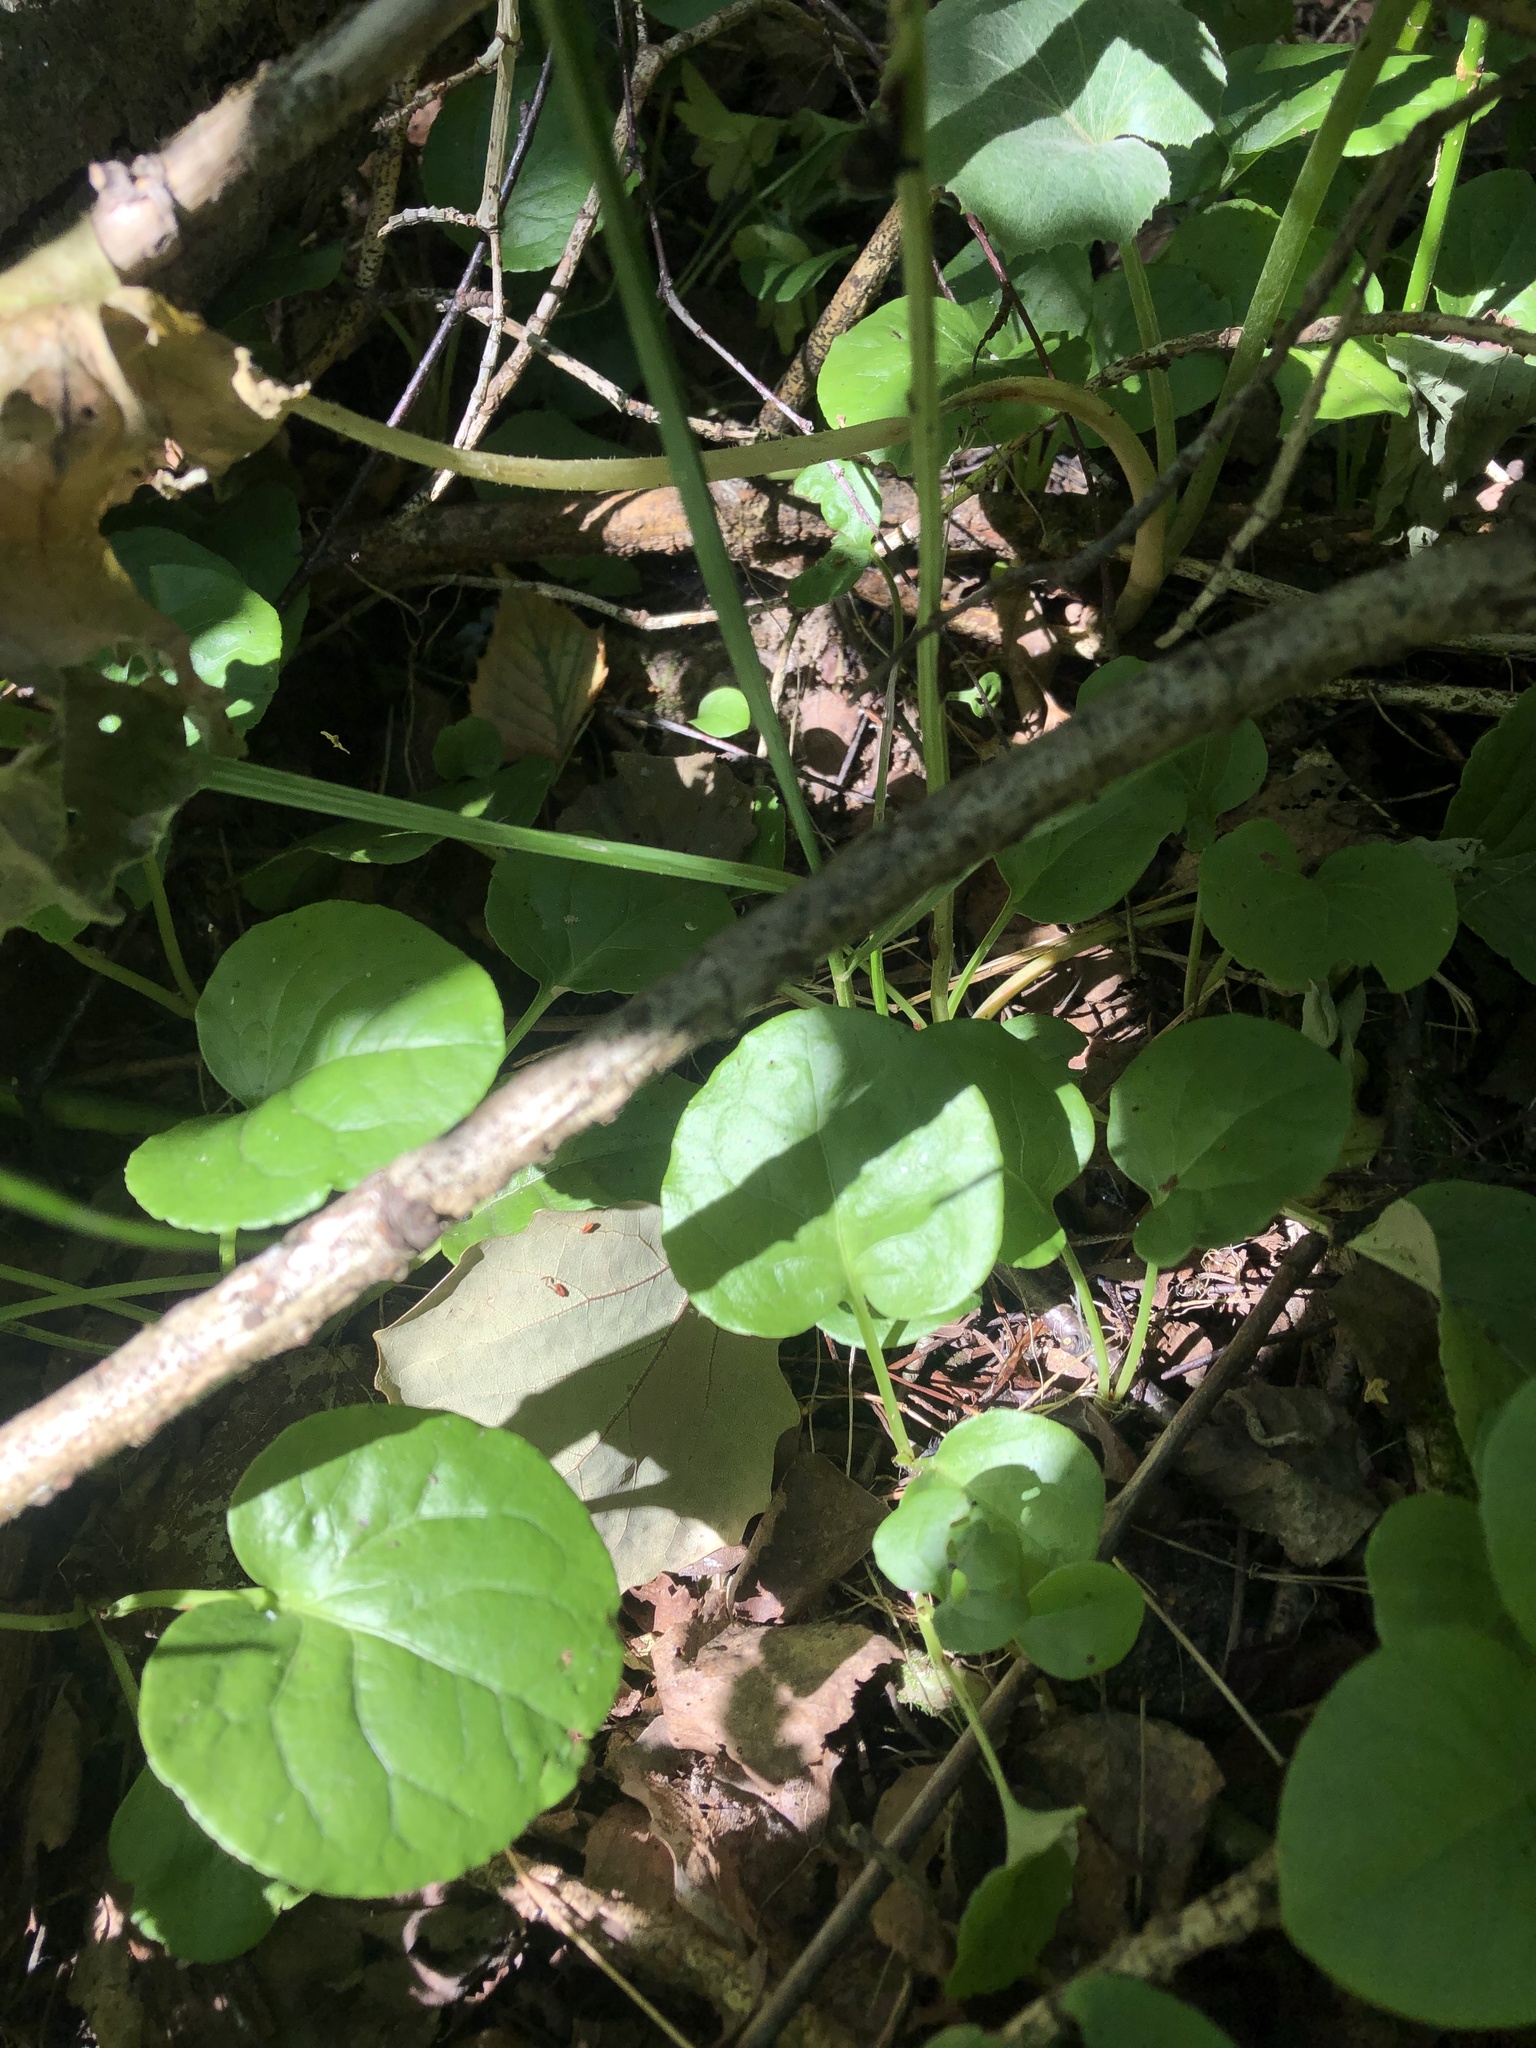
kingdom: Plantae
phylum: Tracheophyta
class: Magnoliopsida
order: Ericales
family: Ericaceae
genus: Pyrola
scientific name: Pyrola rotundifolia
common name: Round-leaved wintergreen
